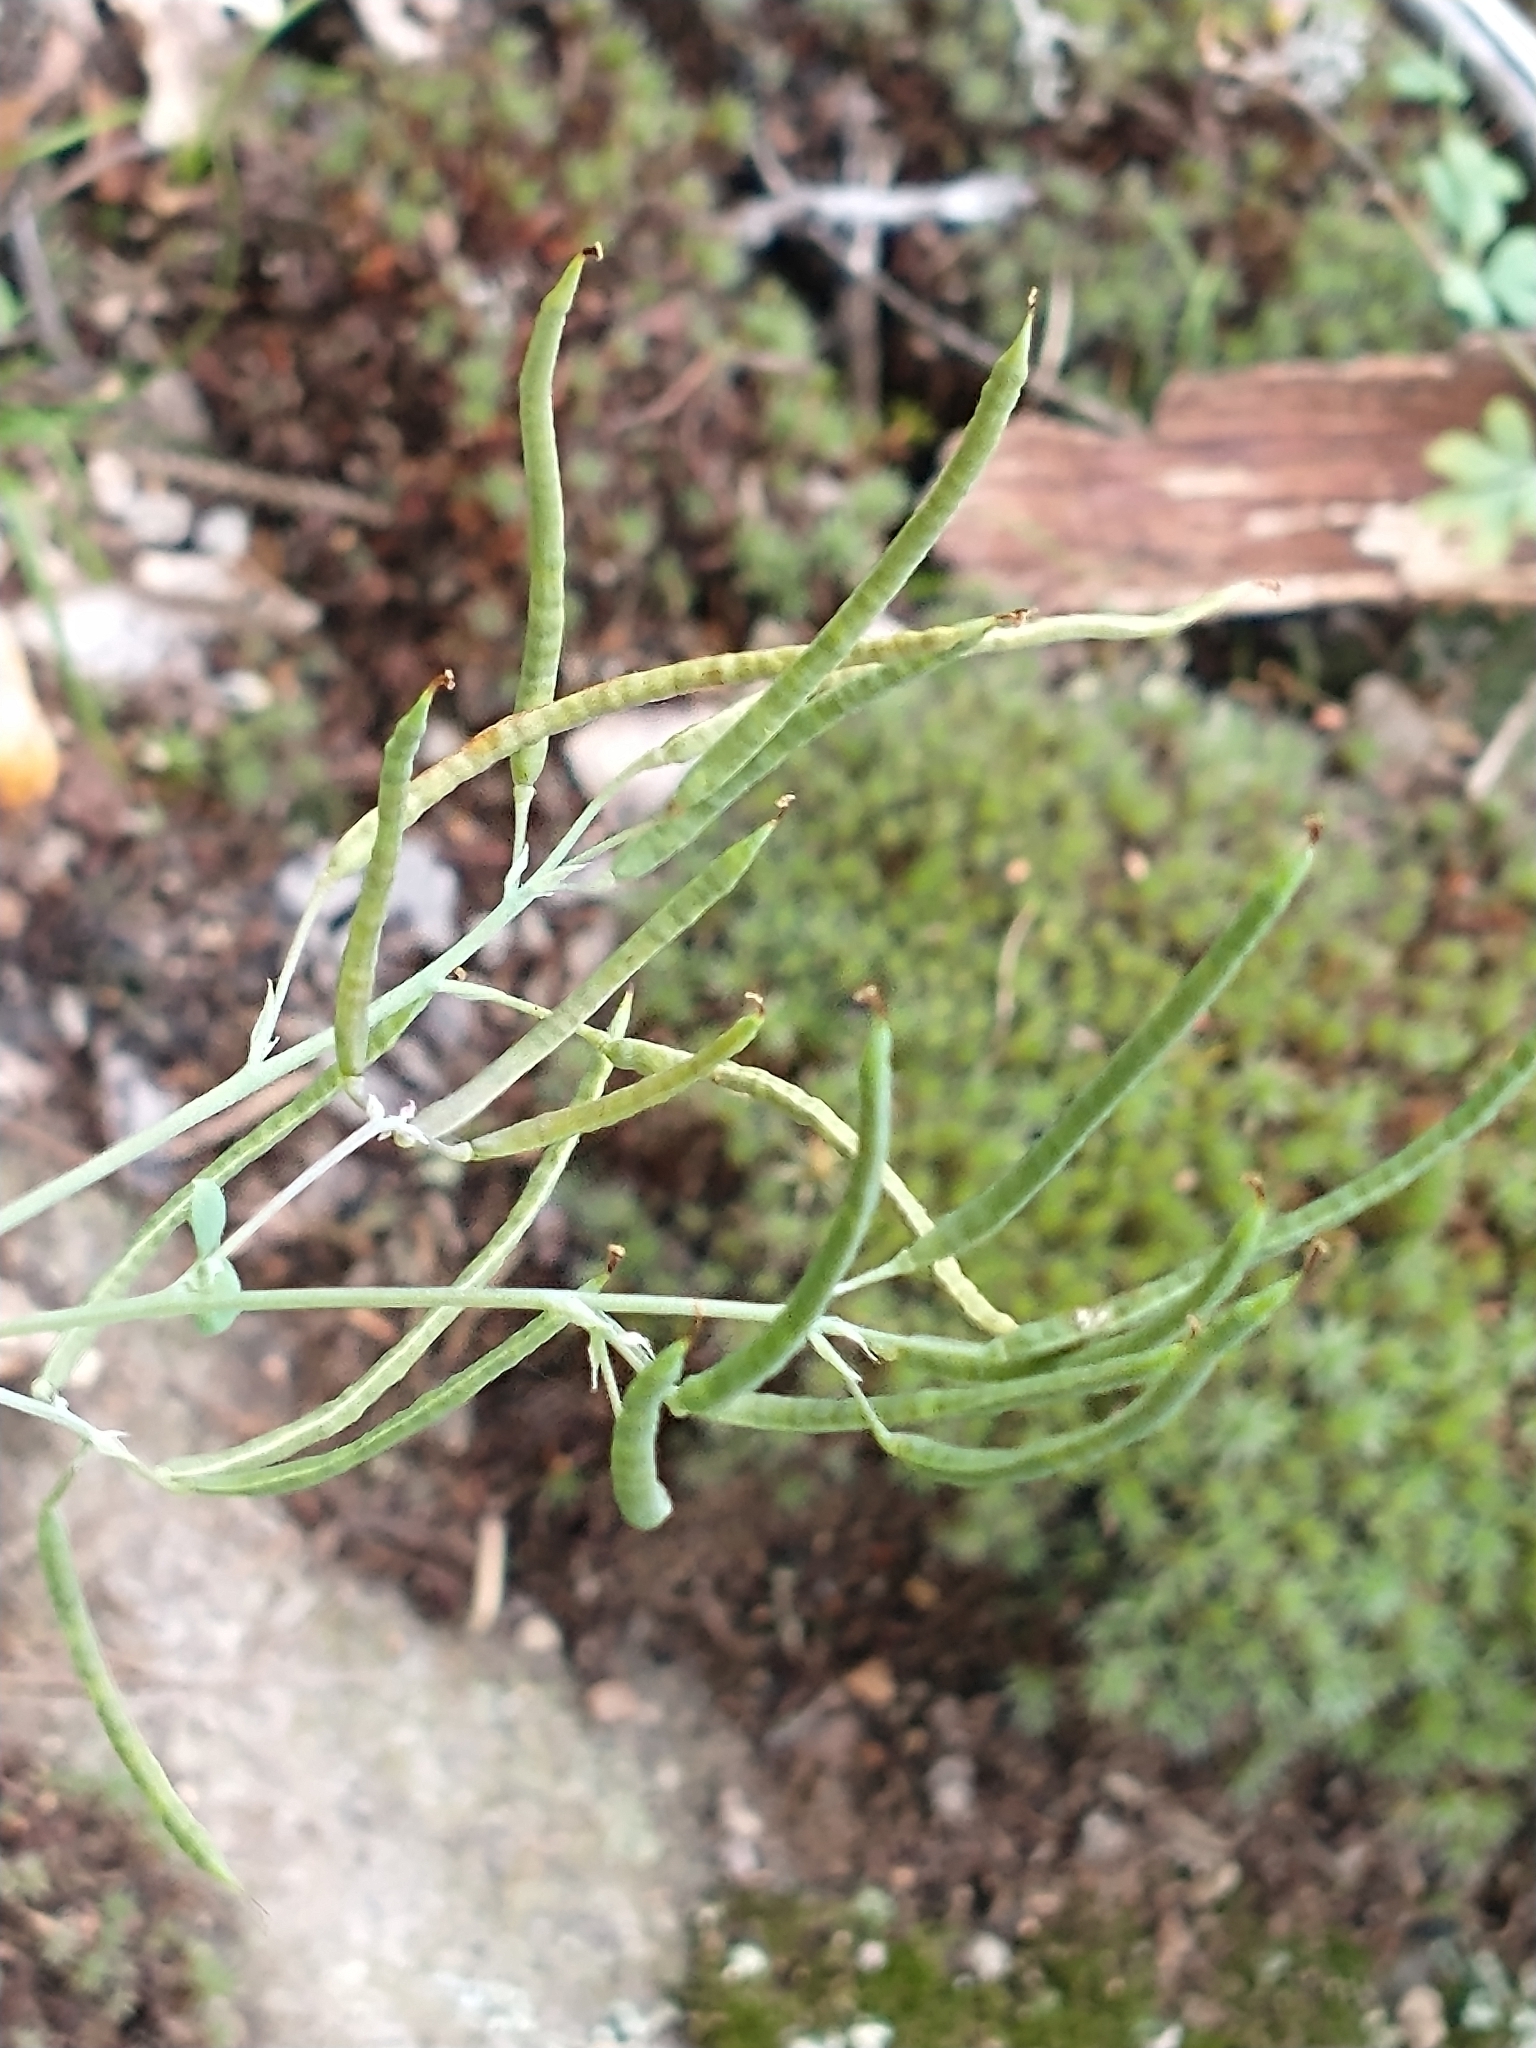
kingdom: Plantae
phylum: Tracheophyta
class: Magnoliopsida
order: Ranunculales
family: Papaveraceae
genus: Capnoides
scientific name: Capnoides sempervirens
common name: Rock harlequin
